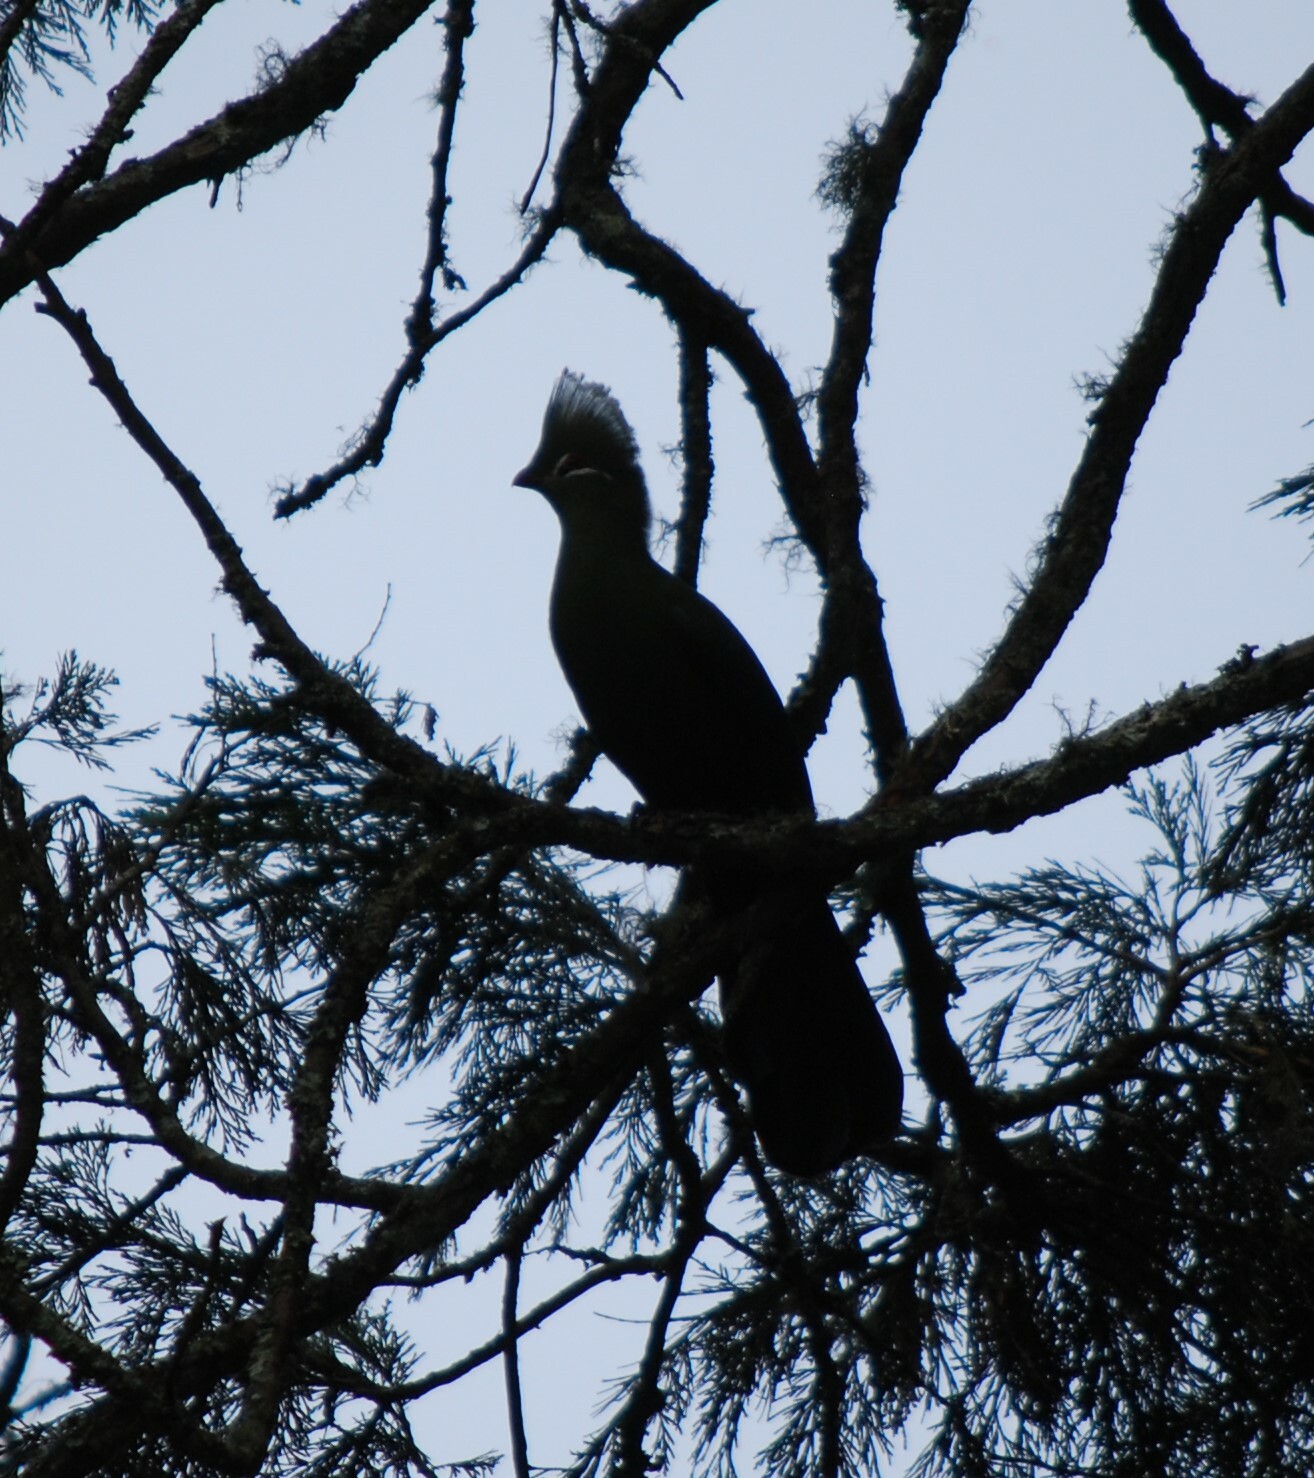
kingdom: Animalia
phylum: Chordata
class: Aves
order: Musophagiformes
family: Musophagidae
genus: Tauraco
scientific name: Tauraco corythaix
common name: Knysna turaco
